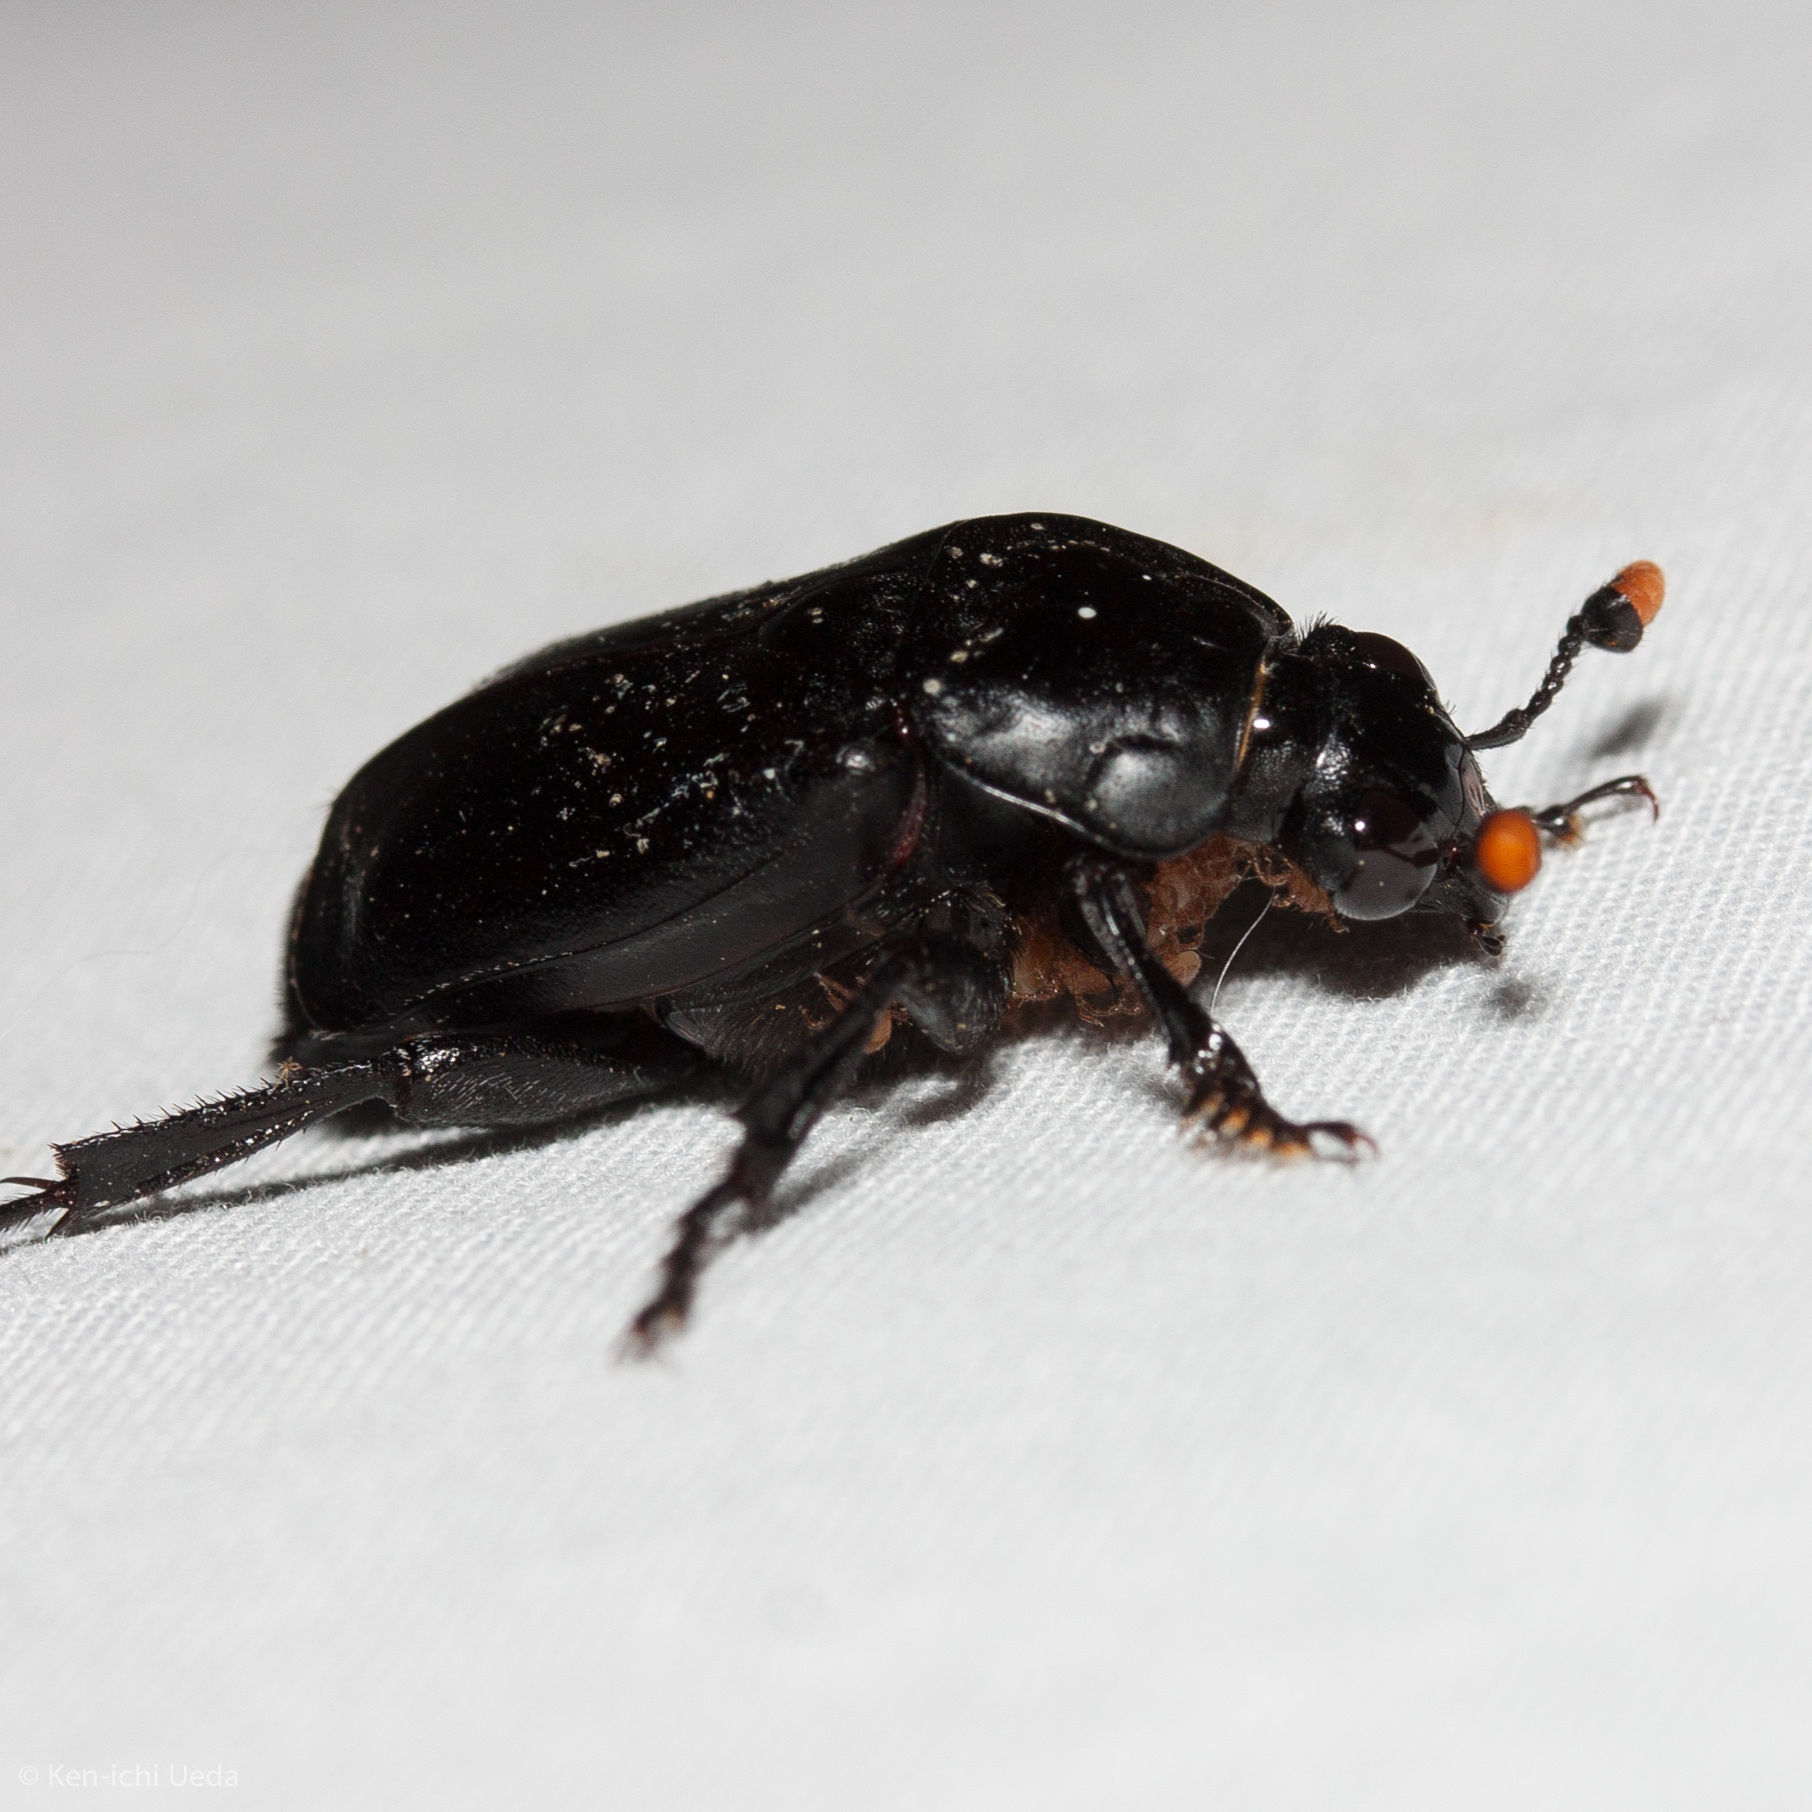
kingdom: Animalia
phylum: Arthropoda
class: Insecta
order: Coleoptera
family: Staphylinidae
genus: Nicrophorus
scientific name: Nicrophorus nigrita
